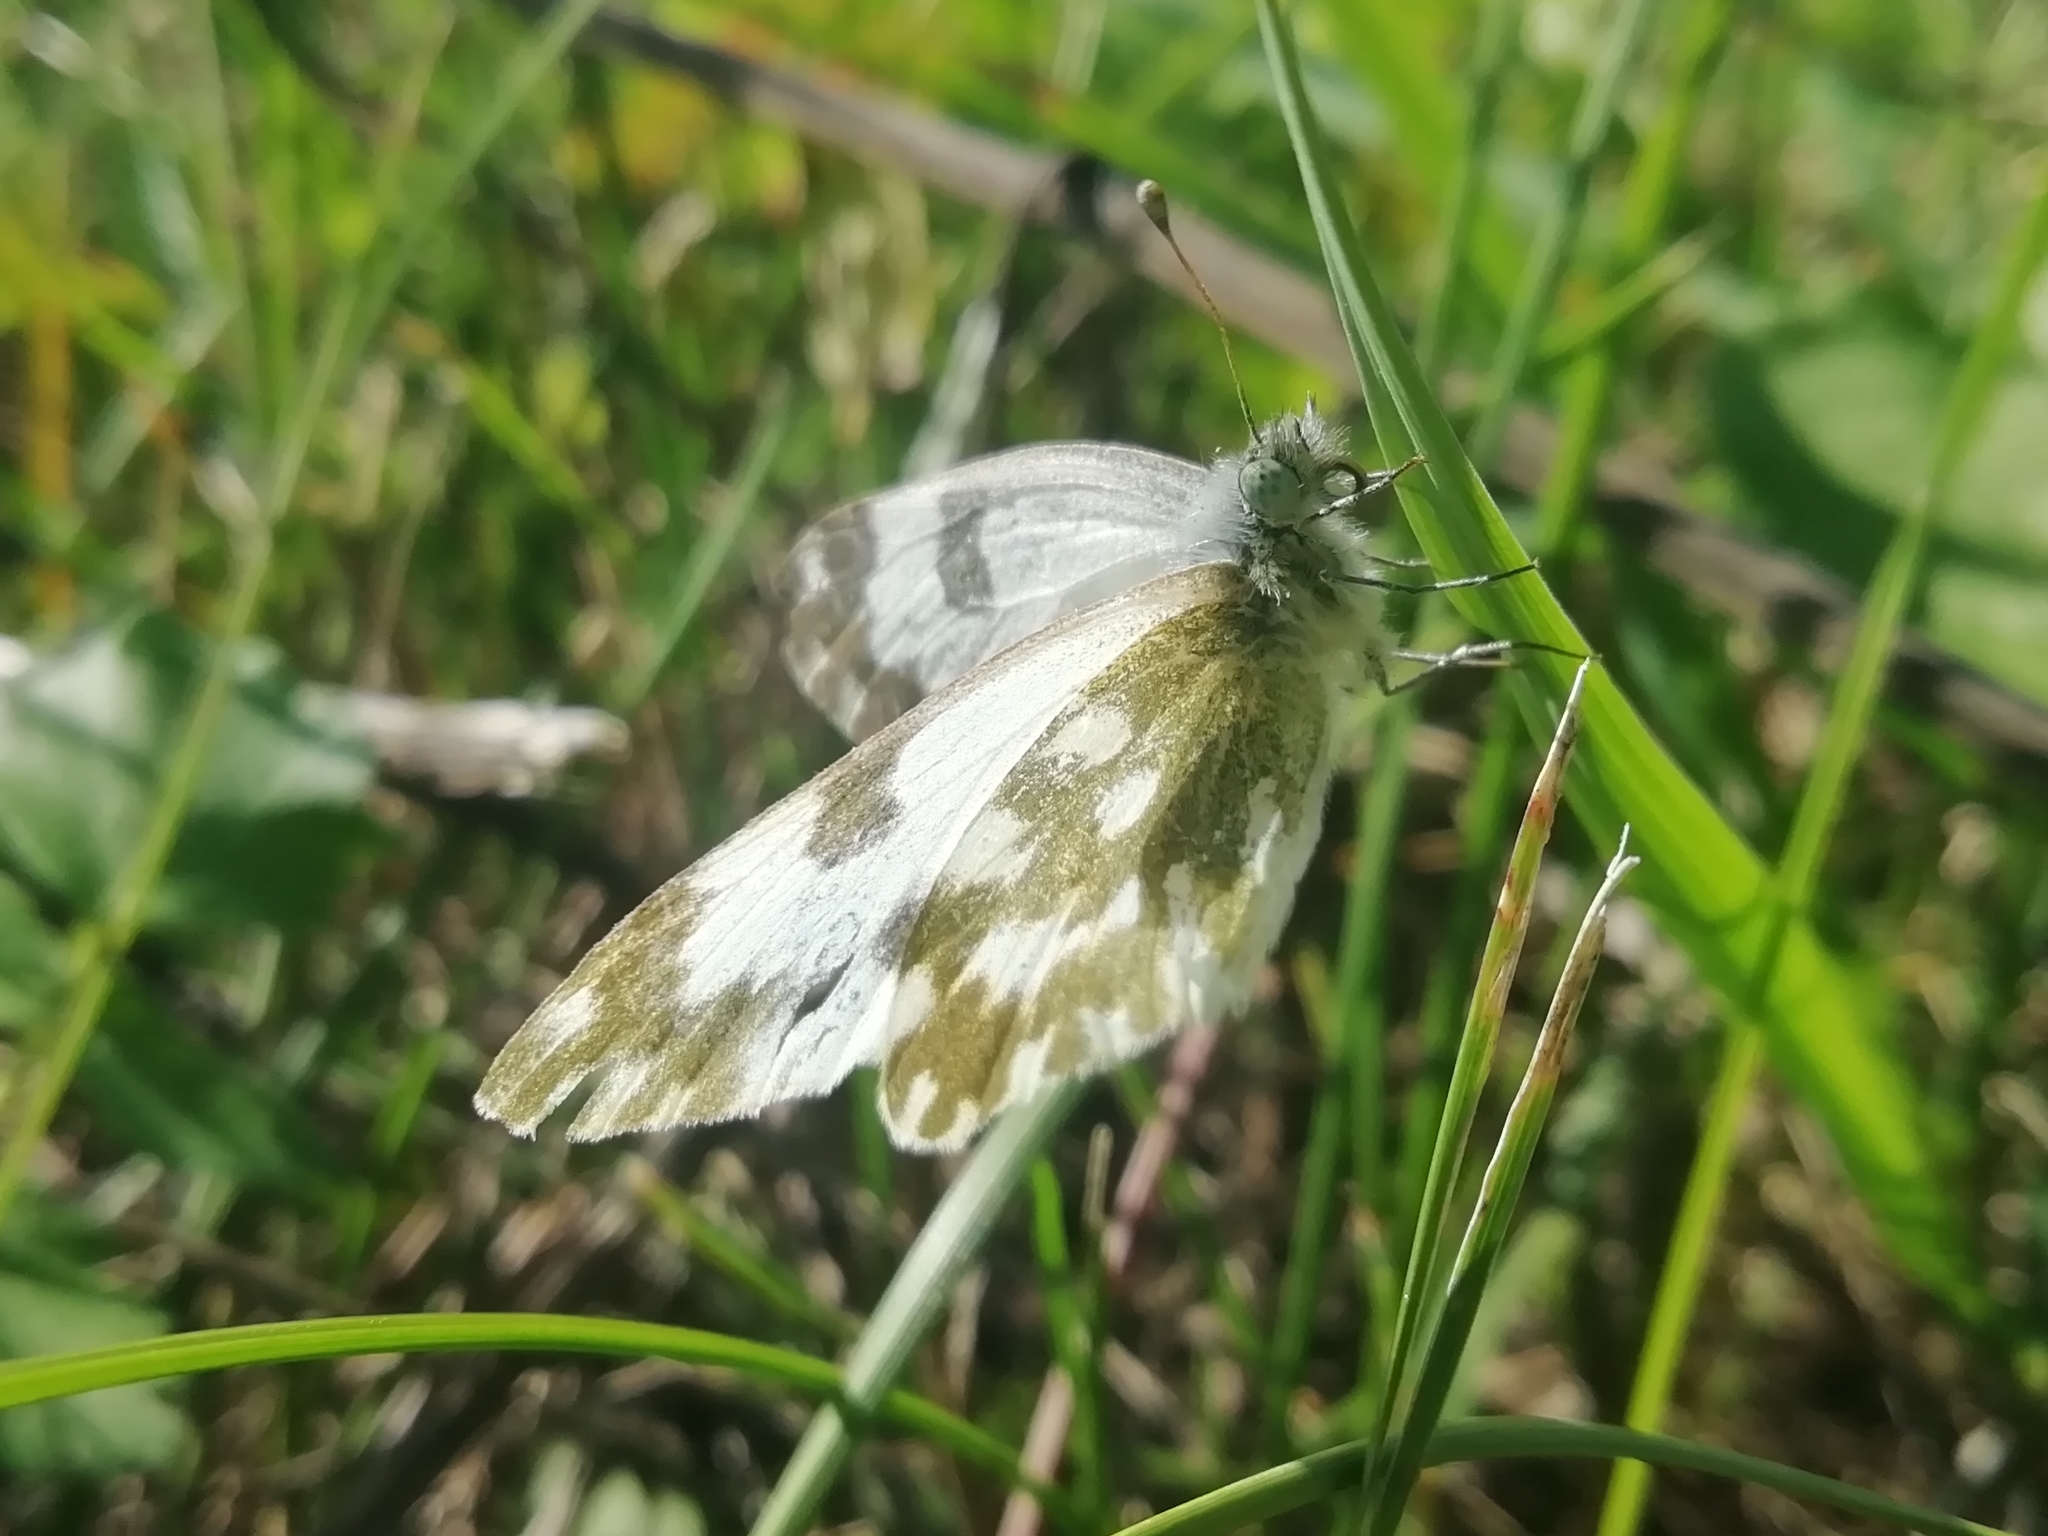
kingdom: Animalia
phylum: Arthropoda
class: Insecta
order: Lepidoptera
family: Pieridae
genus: Pontia
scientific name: Pontia edusa
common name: Eastern bath white
